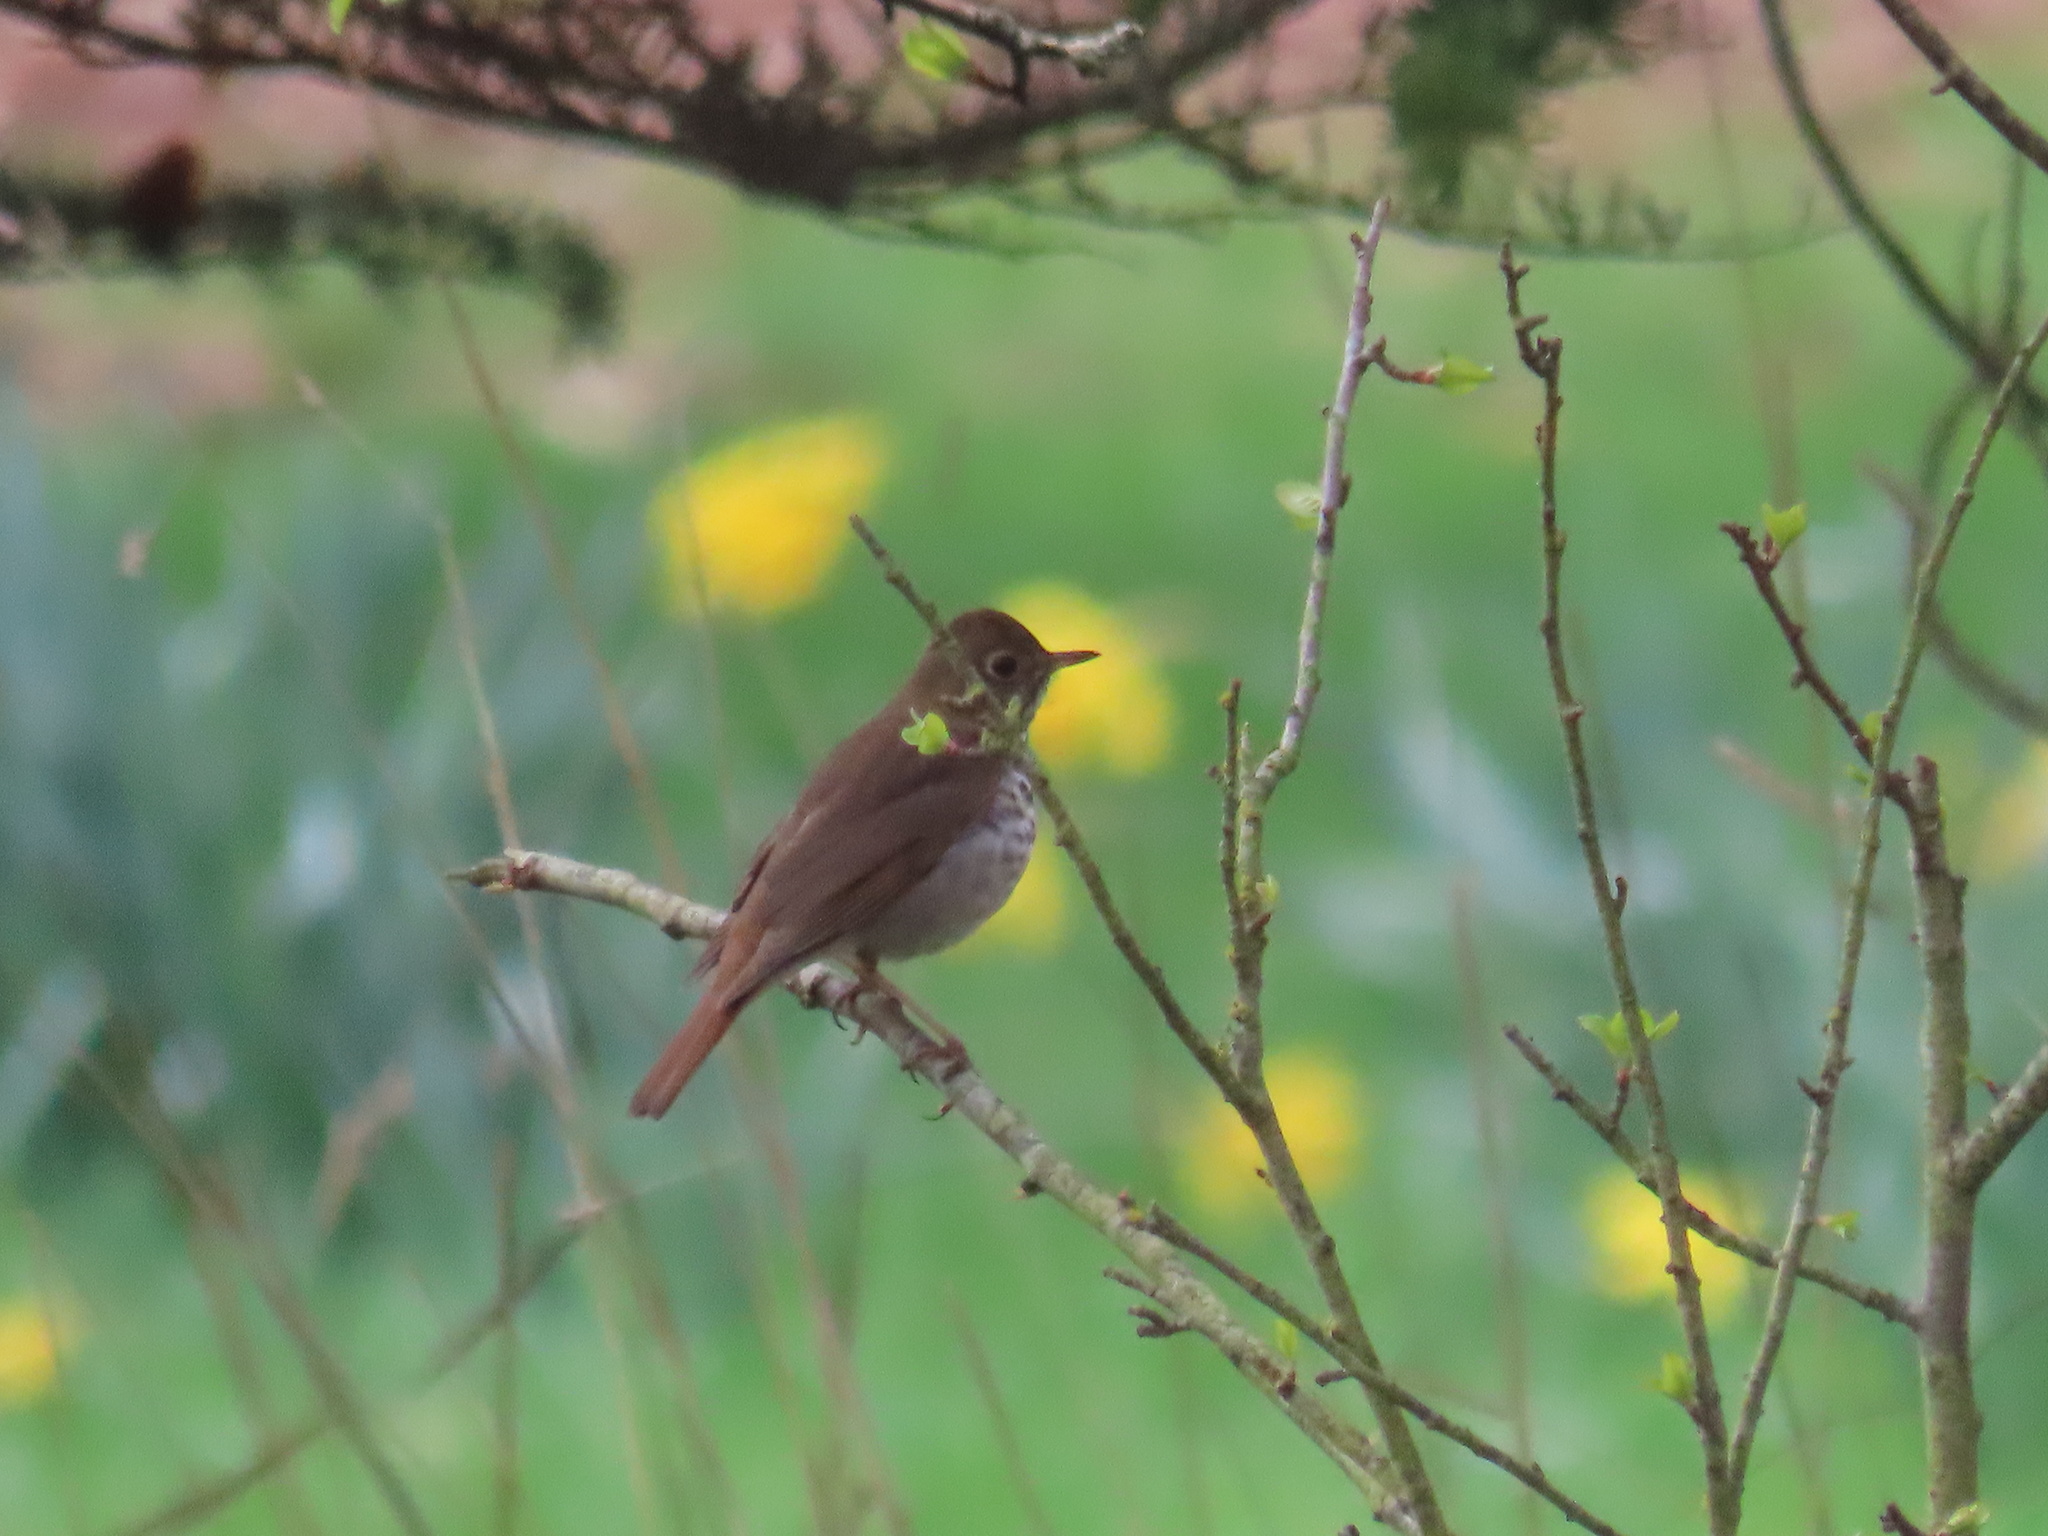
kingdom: Animalia
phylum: Chordata
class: Aves
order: Passeriformes
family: Turdidae
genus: Catharus
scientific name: Catharus guttatus
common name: Hermit thrush
